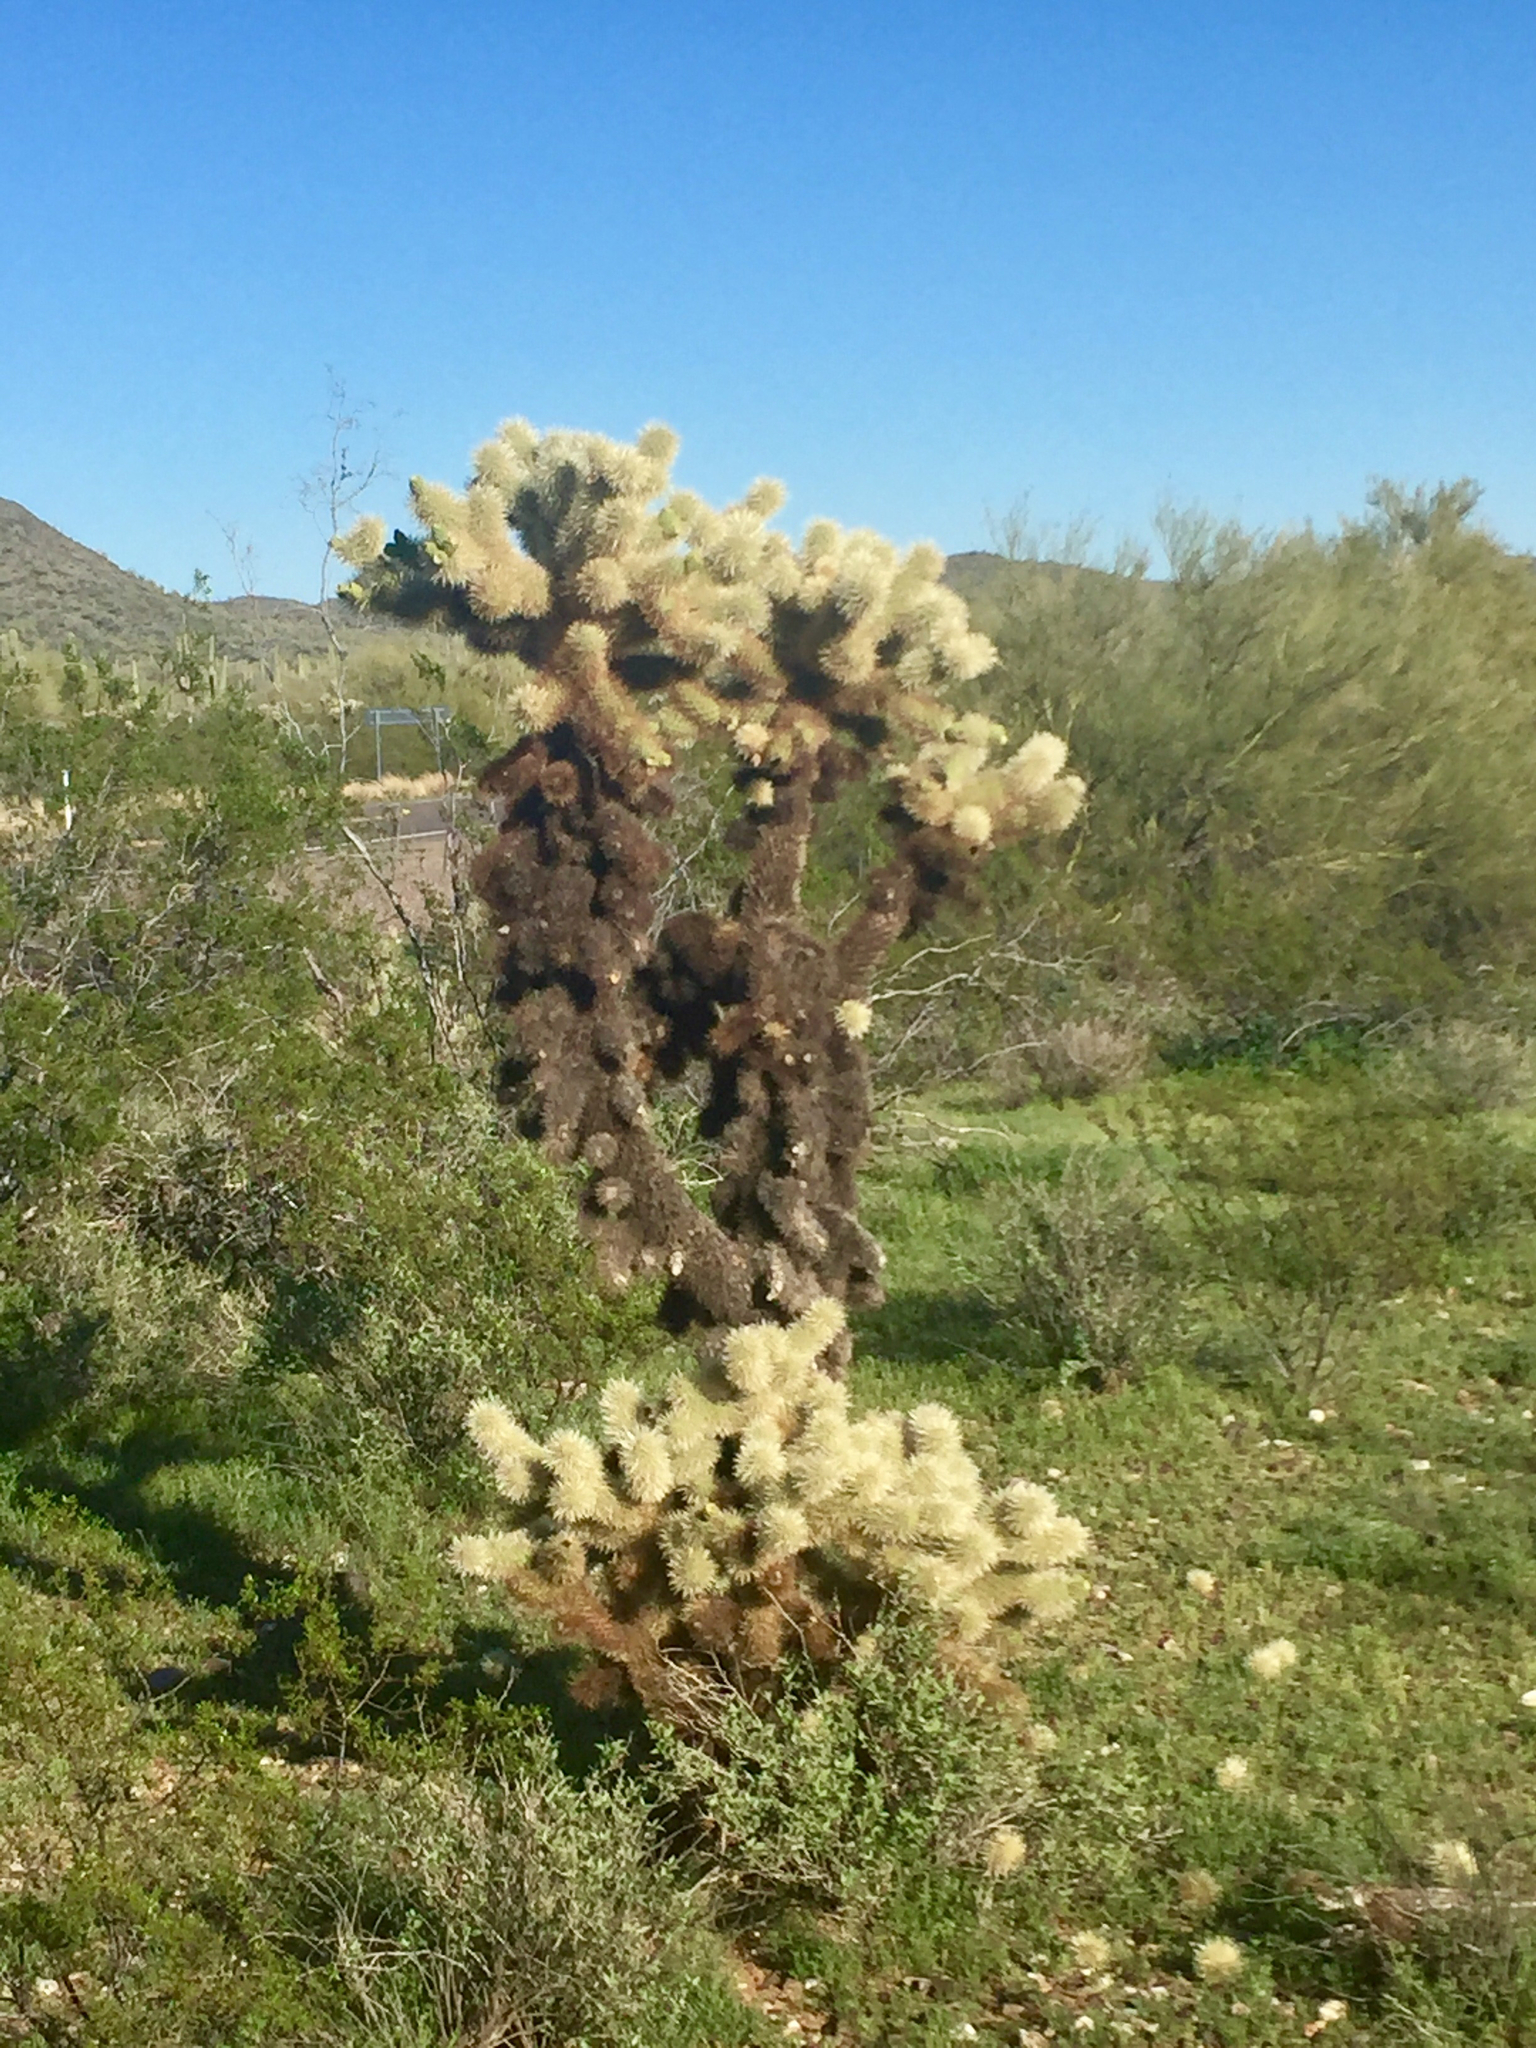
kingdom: Plantae
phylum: Tracheophyta
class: Magnoliopsida
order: Caryophyllales
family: Cactaceae
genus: Cylindropuntia
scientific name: Cylindropuntia fosbergii
